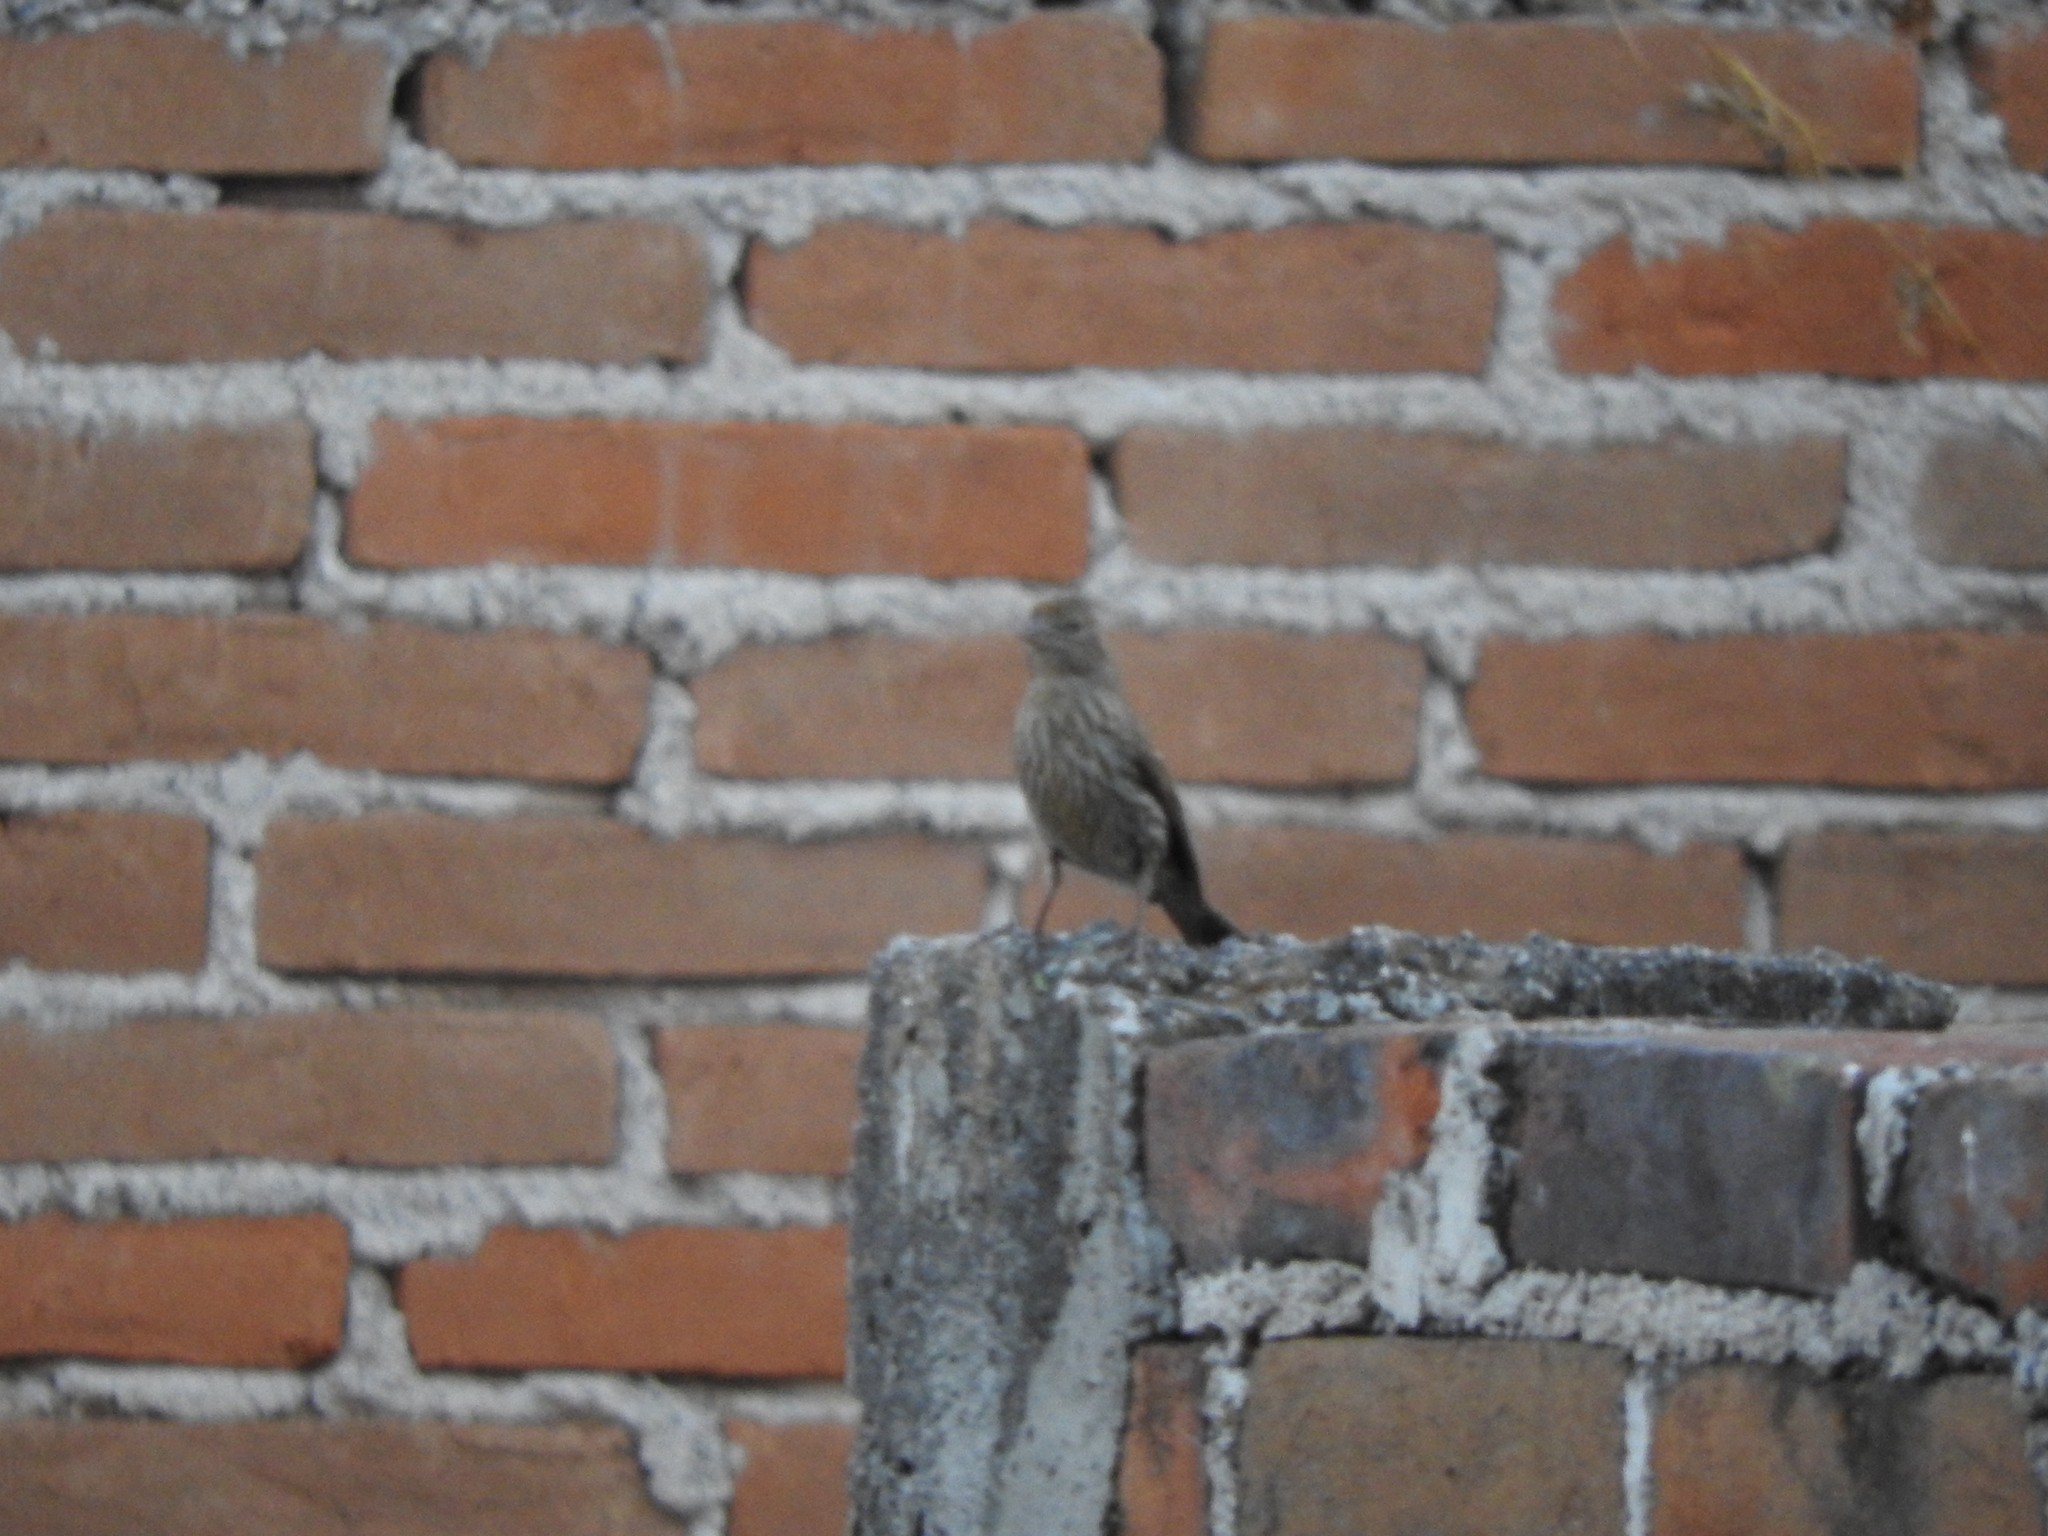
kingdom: Animalia
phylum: Chordata
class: Aves
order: Passeriformes
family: Fringillidae
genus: Haemorhous
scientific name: Haemorhous mexicanus
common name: House finch
